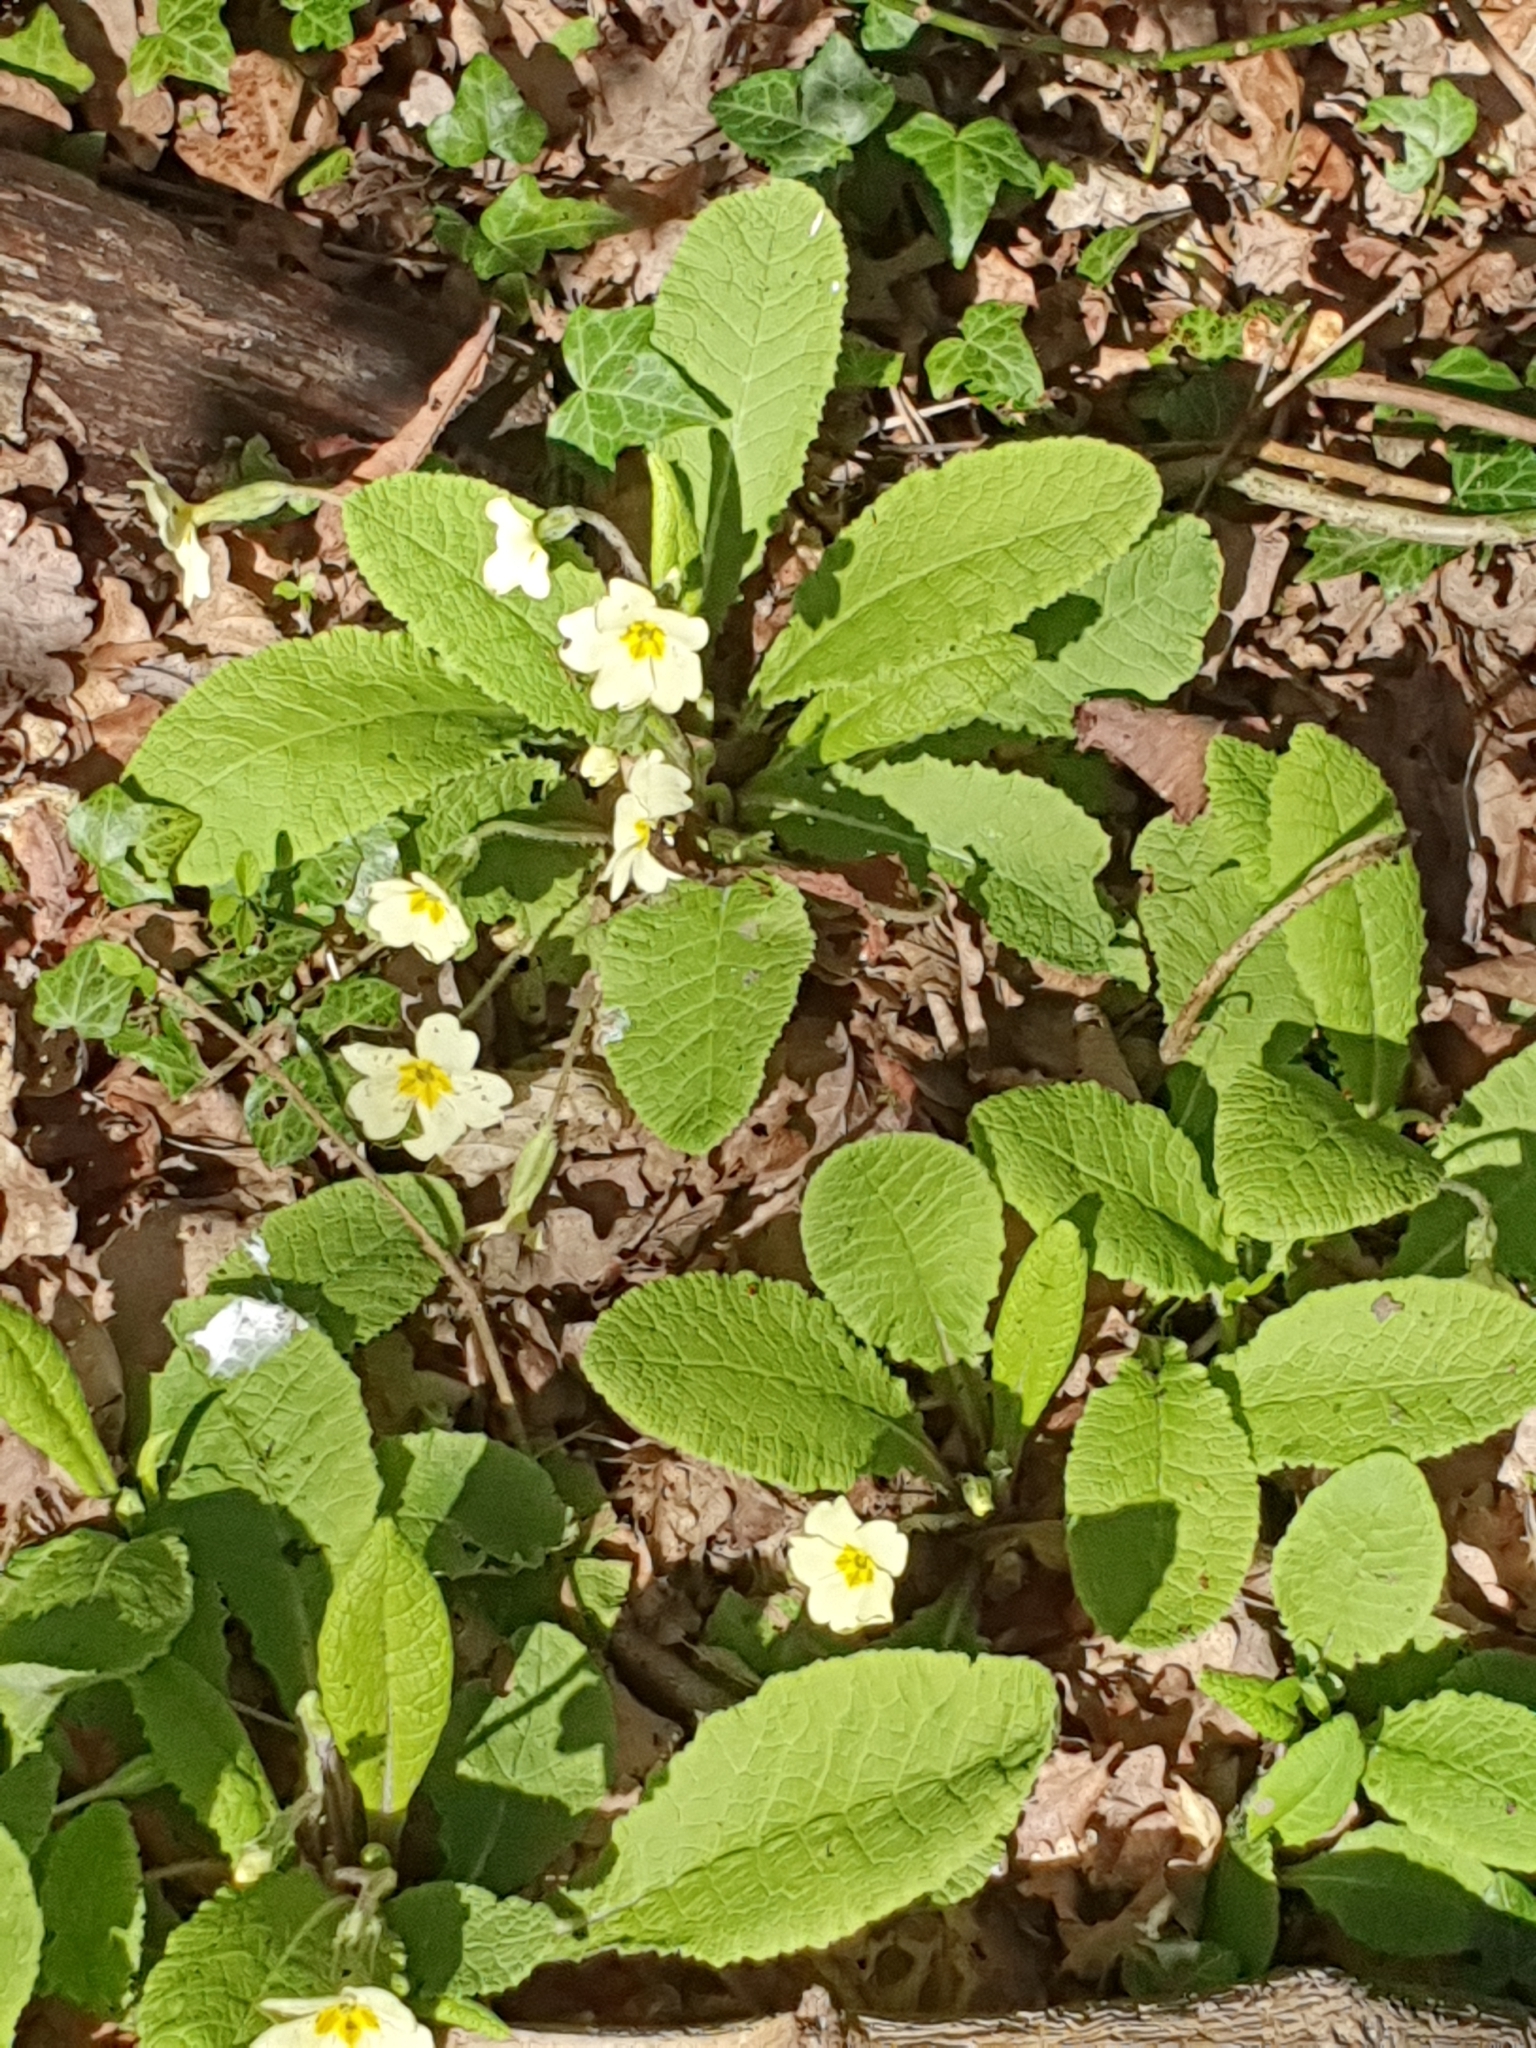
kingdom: Plantae
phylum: Tracheophyta
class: Magnoliopsida
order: Ericales
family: Primulaceae
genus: Primula
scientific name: Primula vulgaris
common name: Primrose
